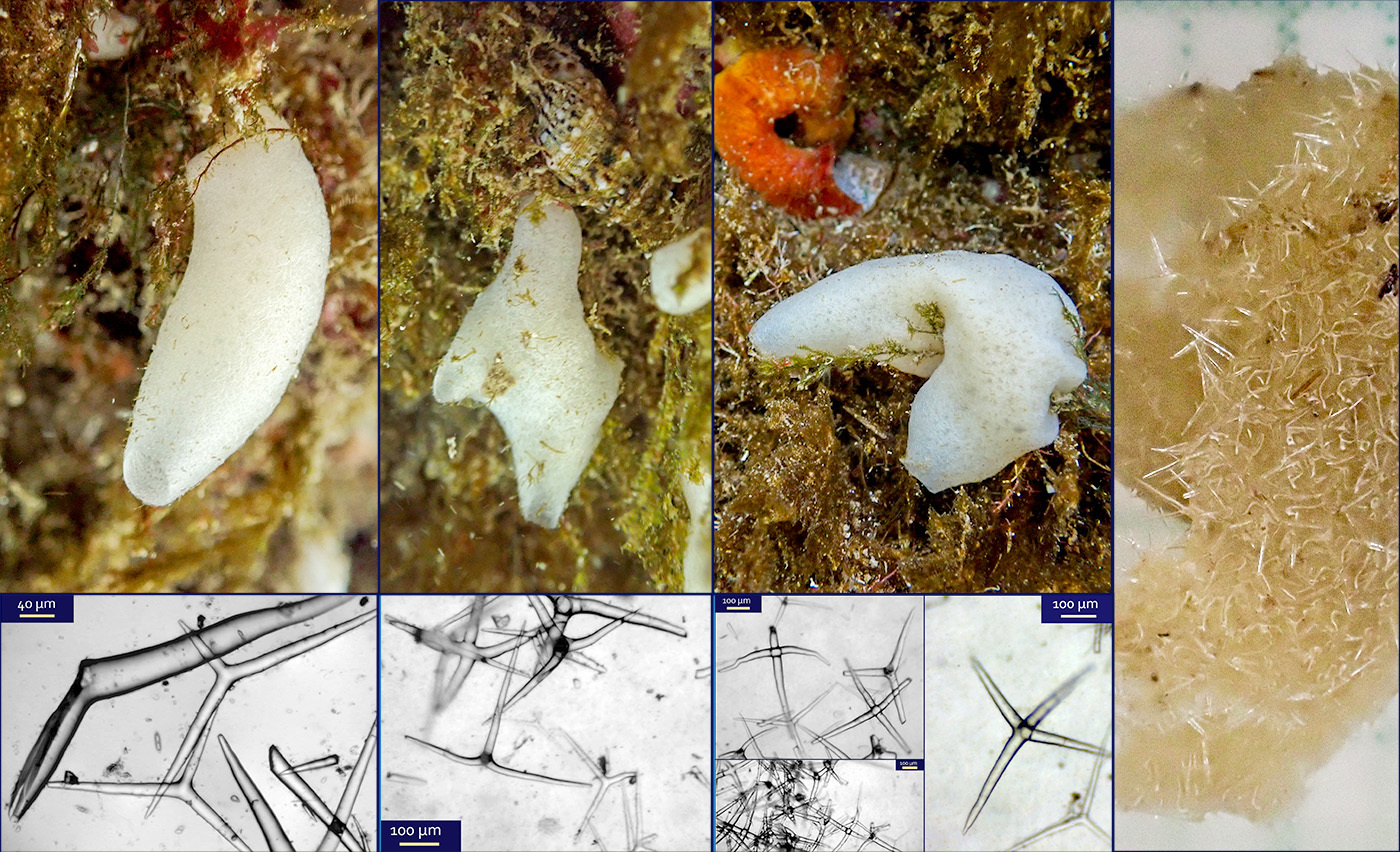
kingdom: Animalia
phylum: Porifera
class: Calcarea
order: Leucosolenida
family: Amphoriscidae
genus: Paraleucilla
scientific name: Paraleucilla magna
